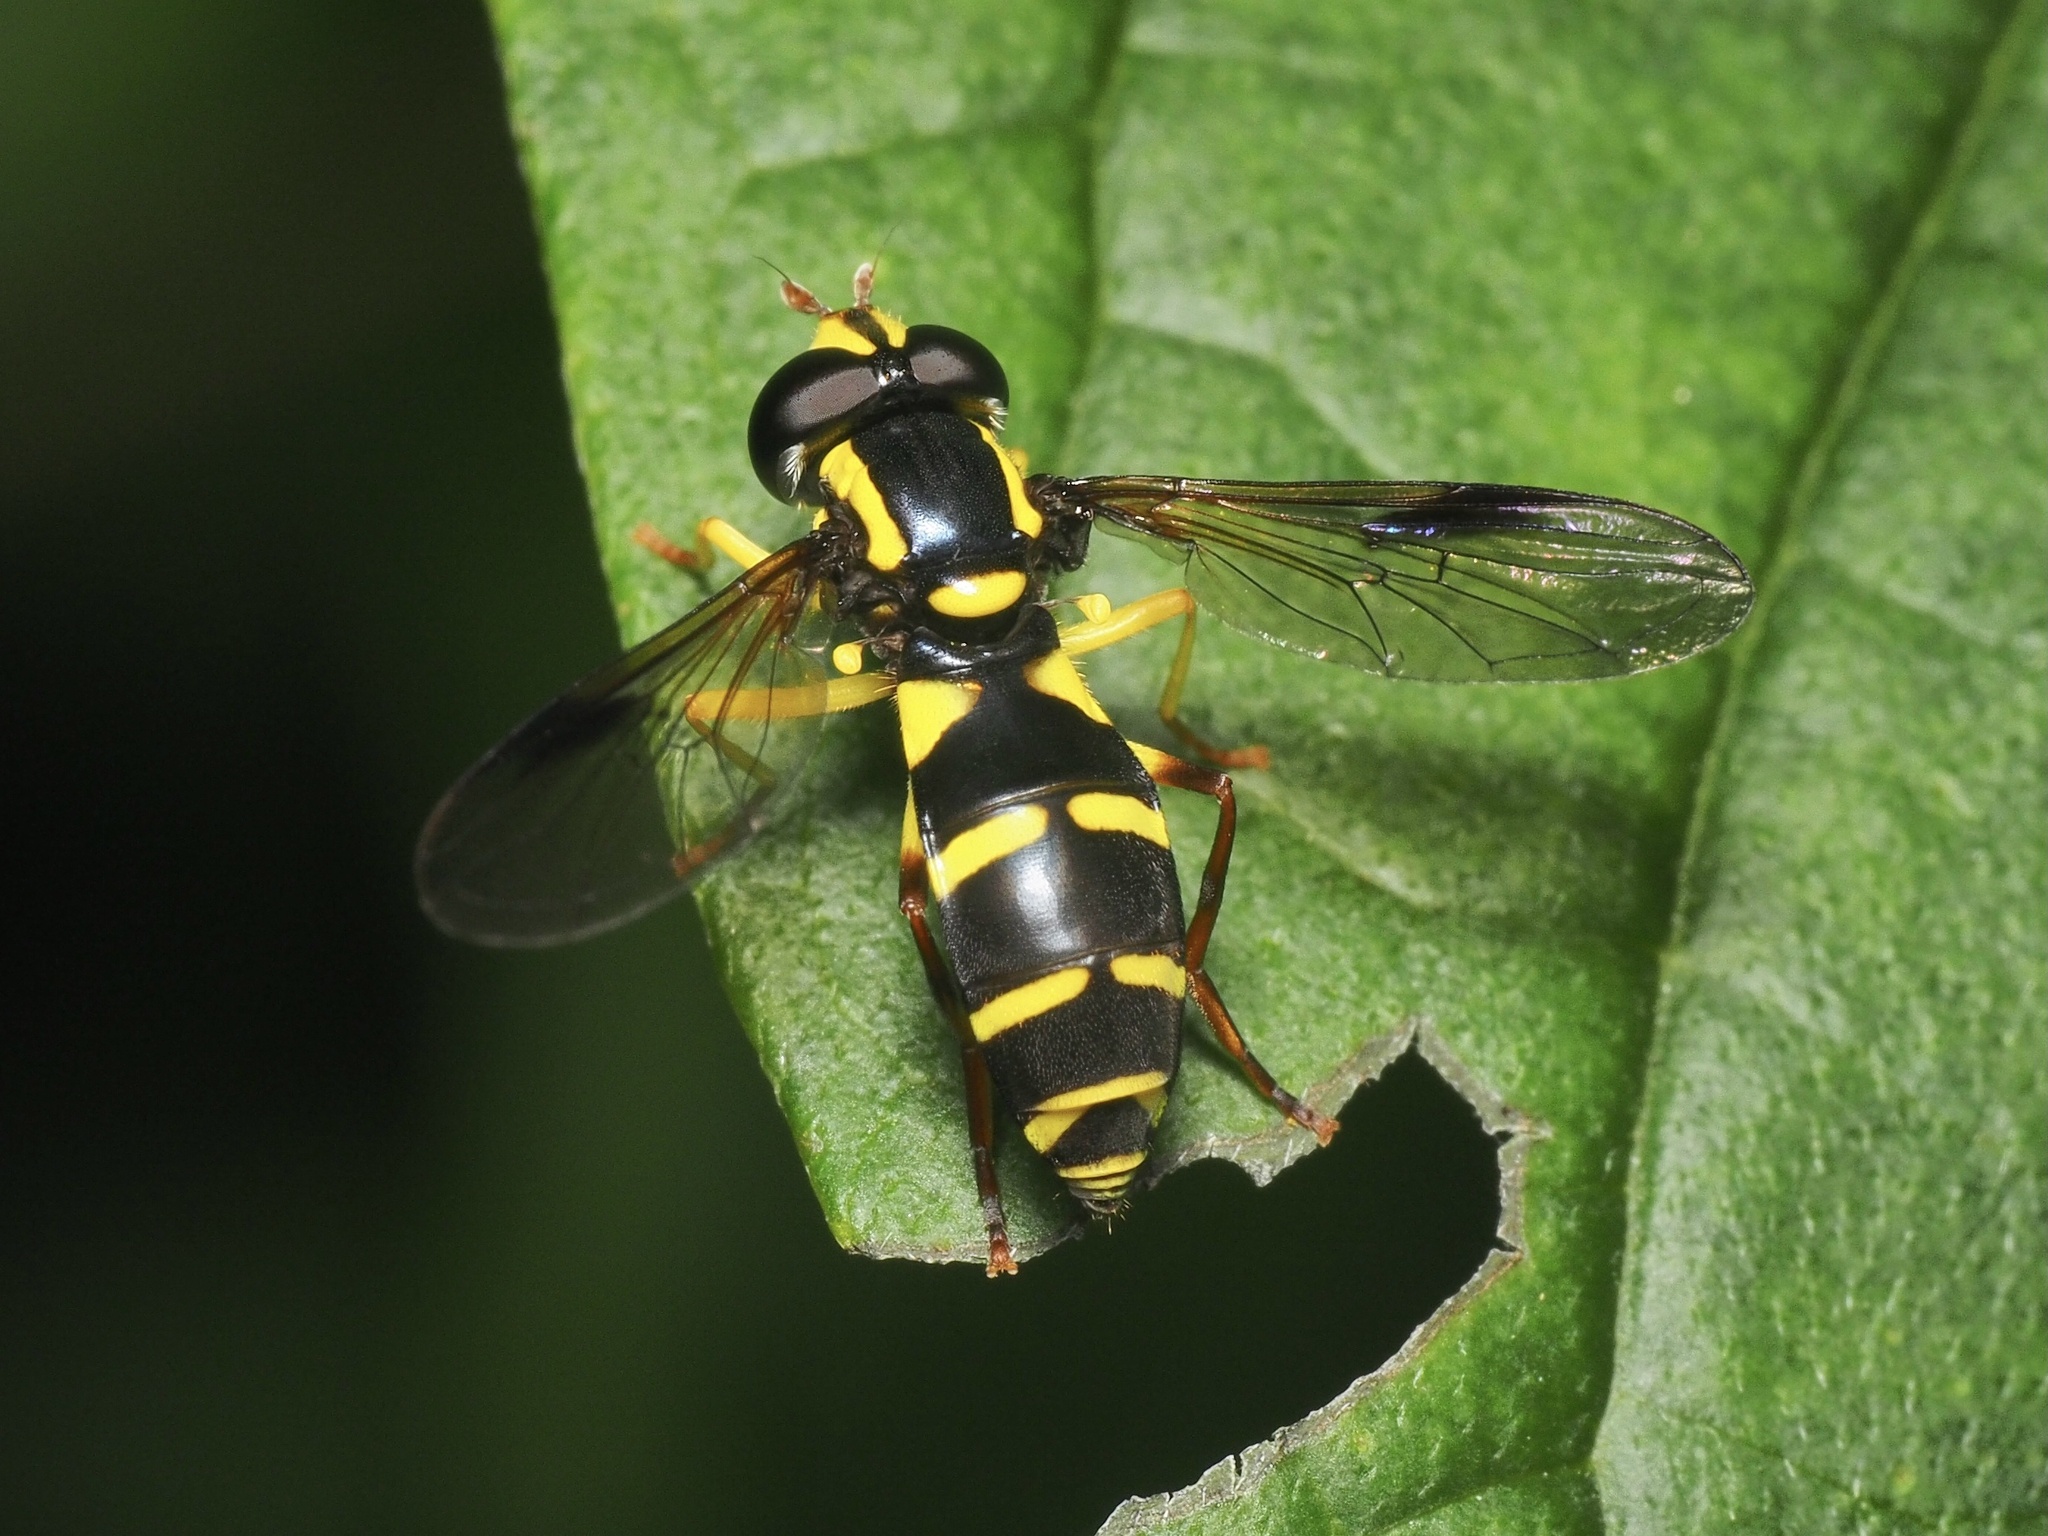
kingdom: Animalia
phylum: Arthropoda
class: Insecta
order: Diptera
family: Syrphidae
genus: Philhelius
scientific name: Philhelius pedissequum
